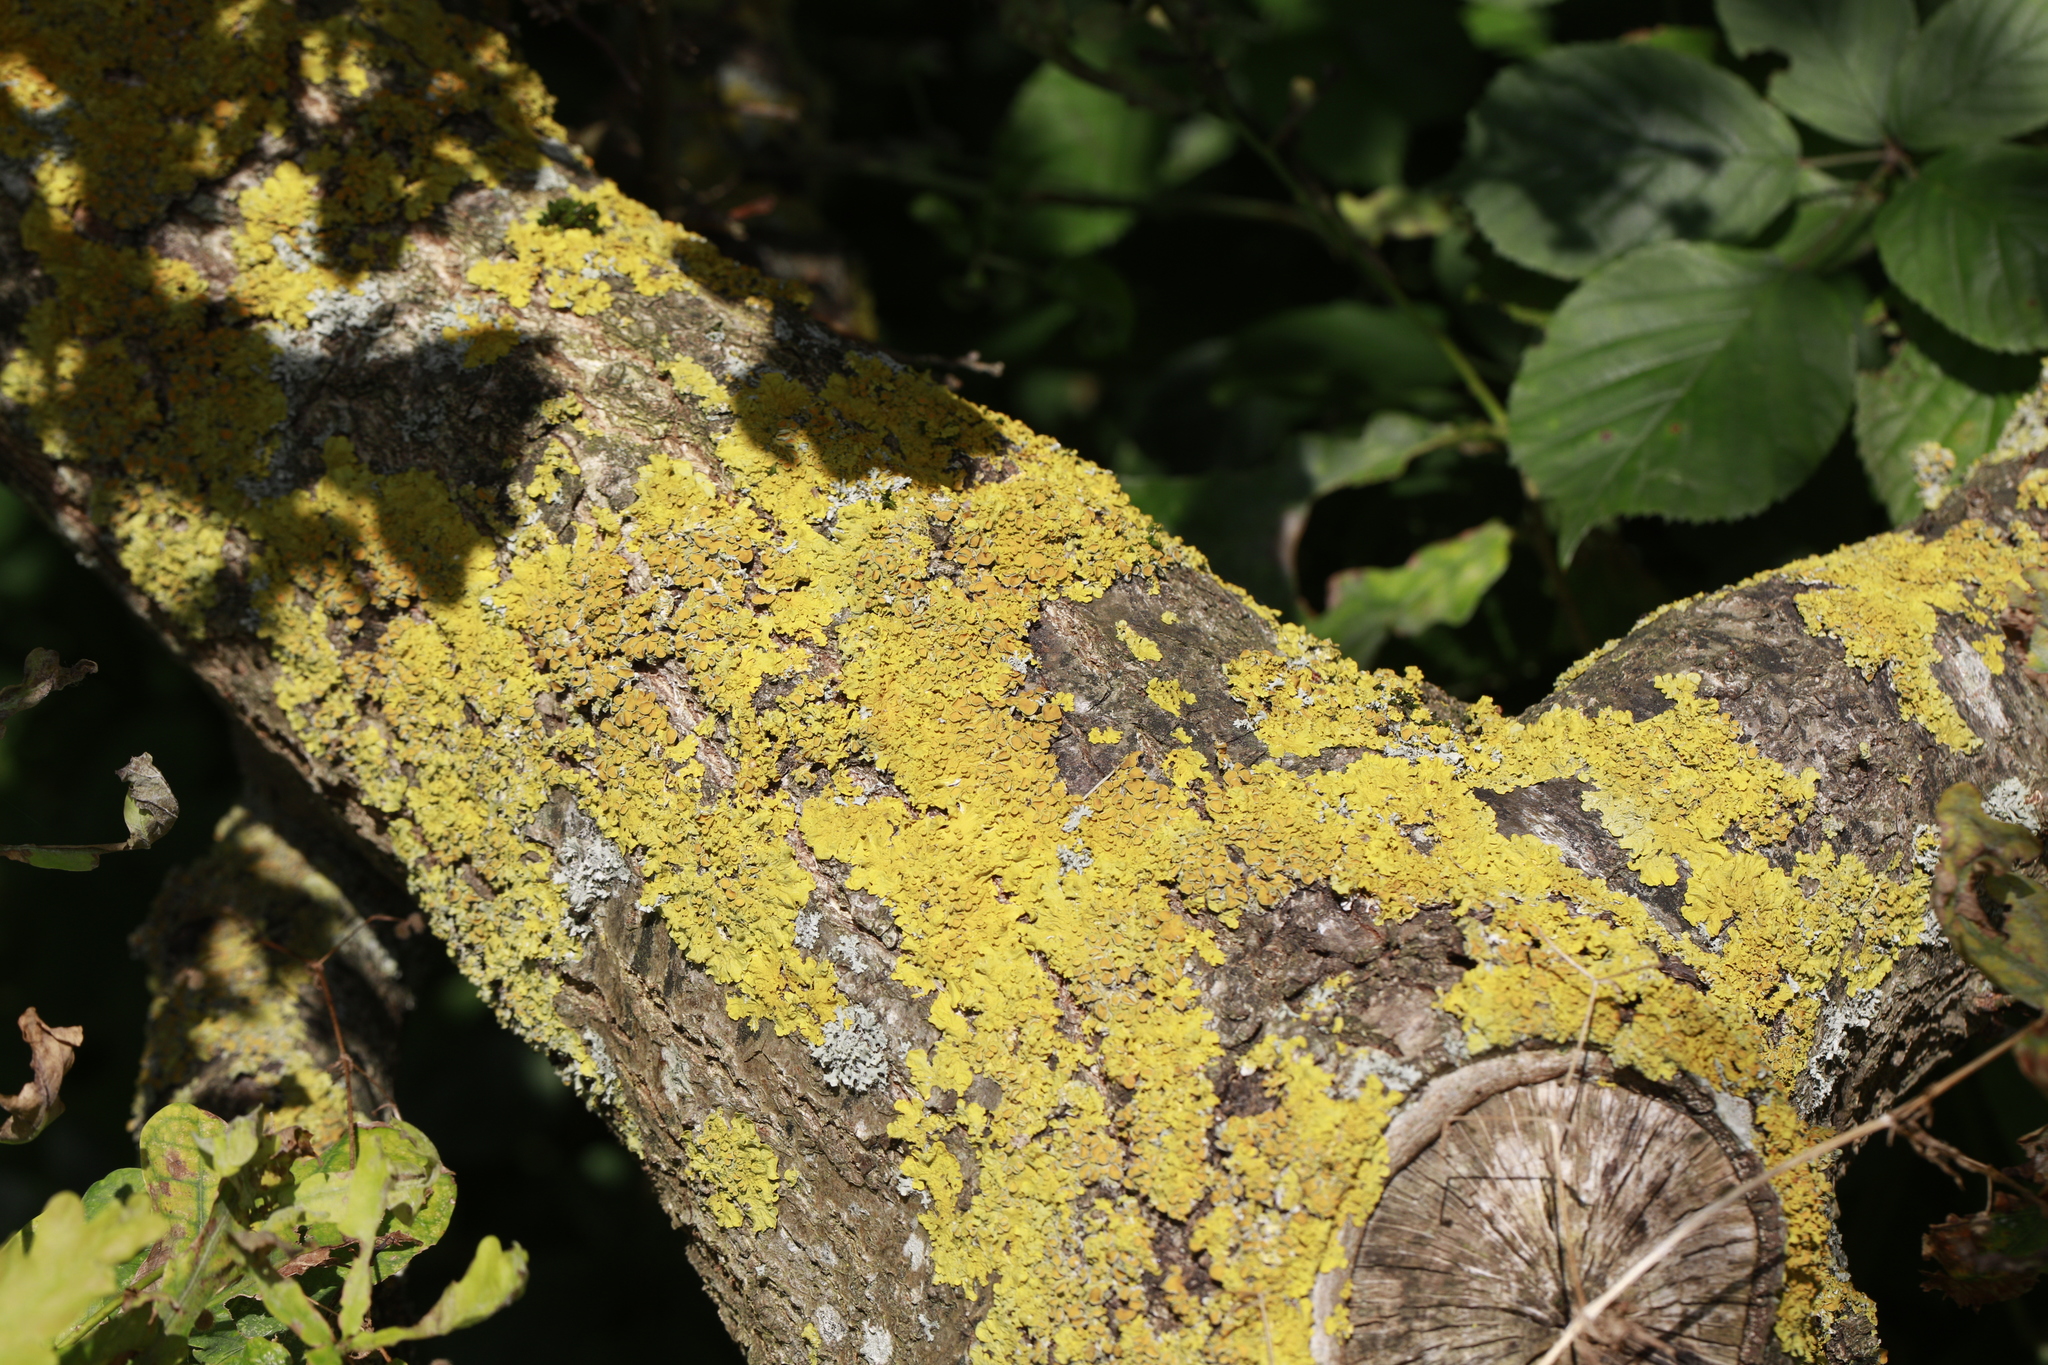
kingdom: Fungi
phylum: Ascomycota
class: Lecanoromycetes
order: Teloschistales
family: Teloschistaceae
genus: Xanthoria
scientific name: Xanthoria parietina
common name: Common orange lichen
